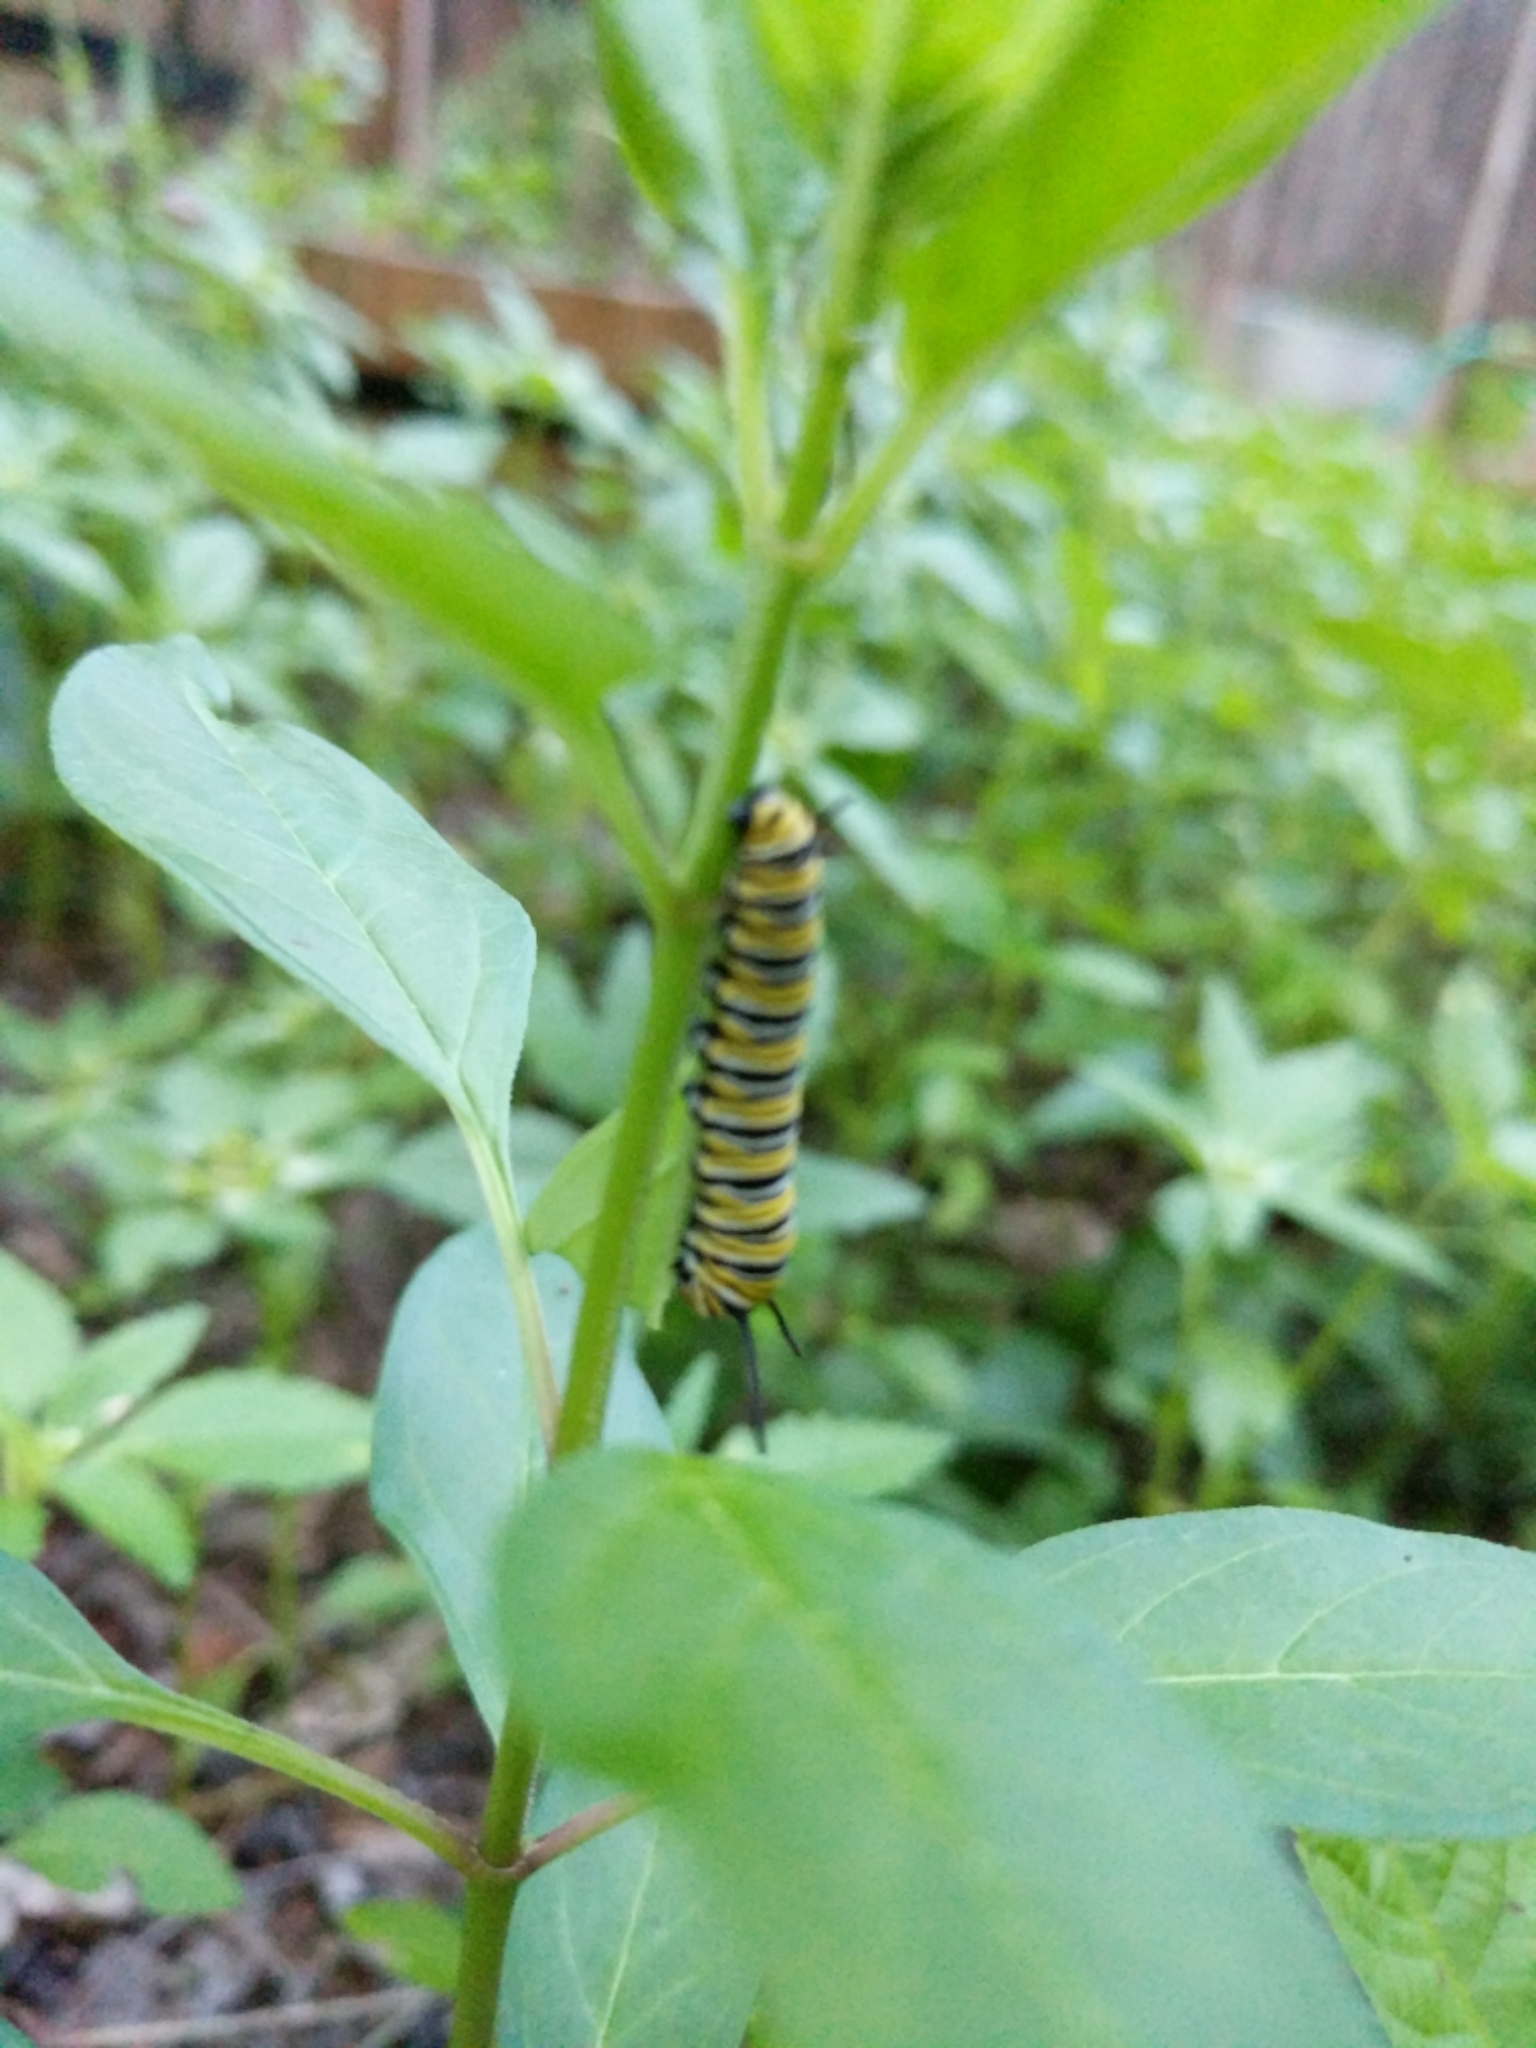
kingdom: Animalia
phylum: Arthropoda
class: Insecta
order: Lepidoptera
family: Nymphalidae
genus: Danaus
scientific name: Danaus plexippus
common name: Monarch
